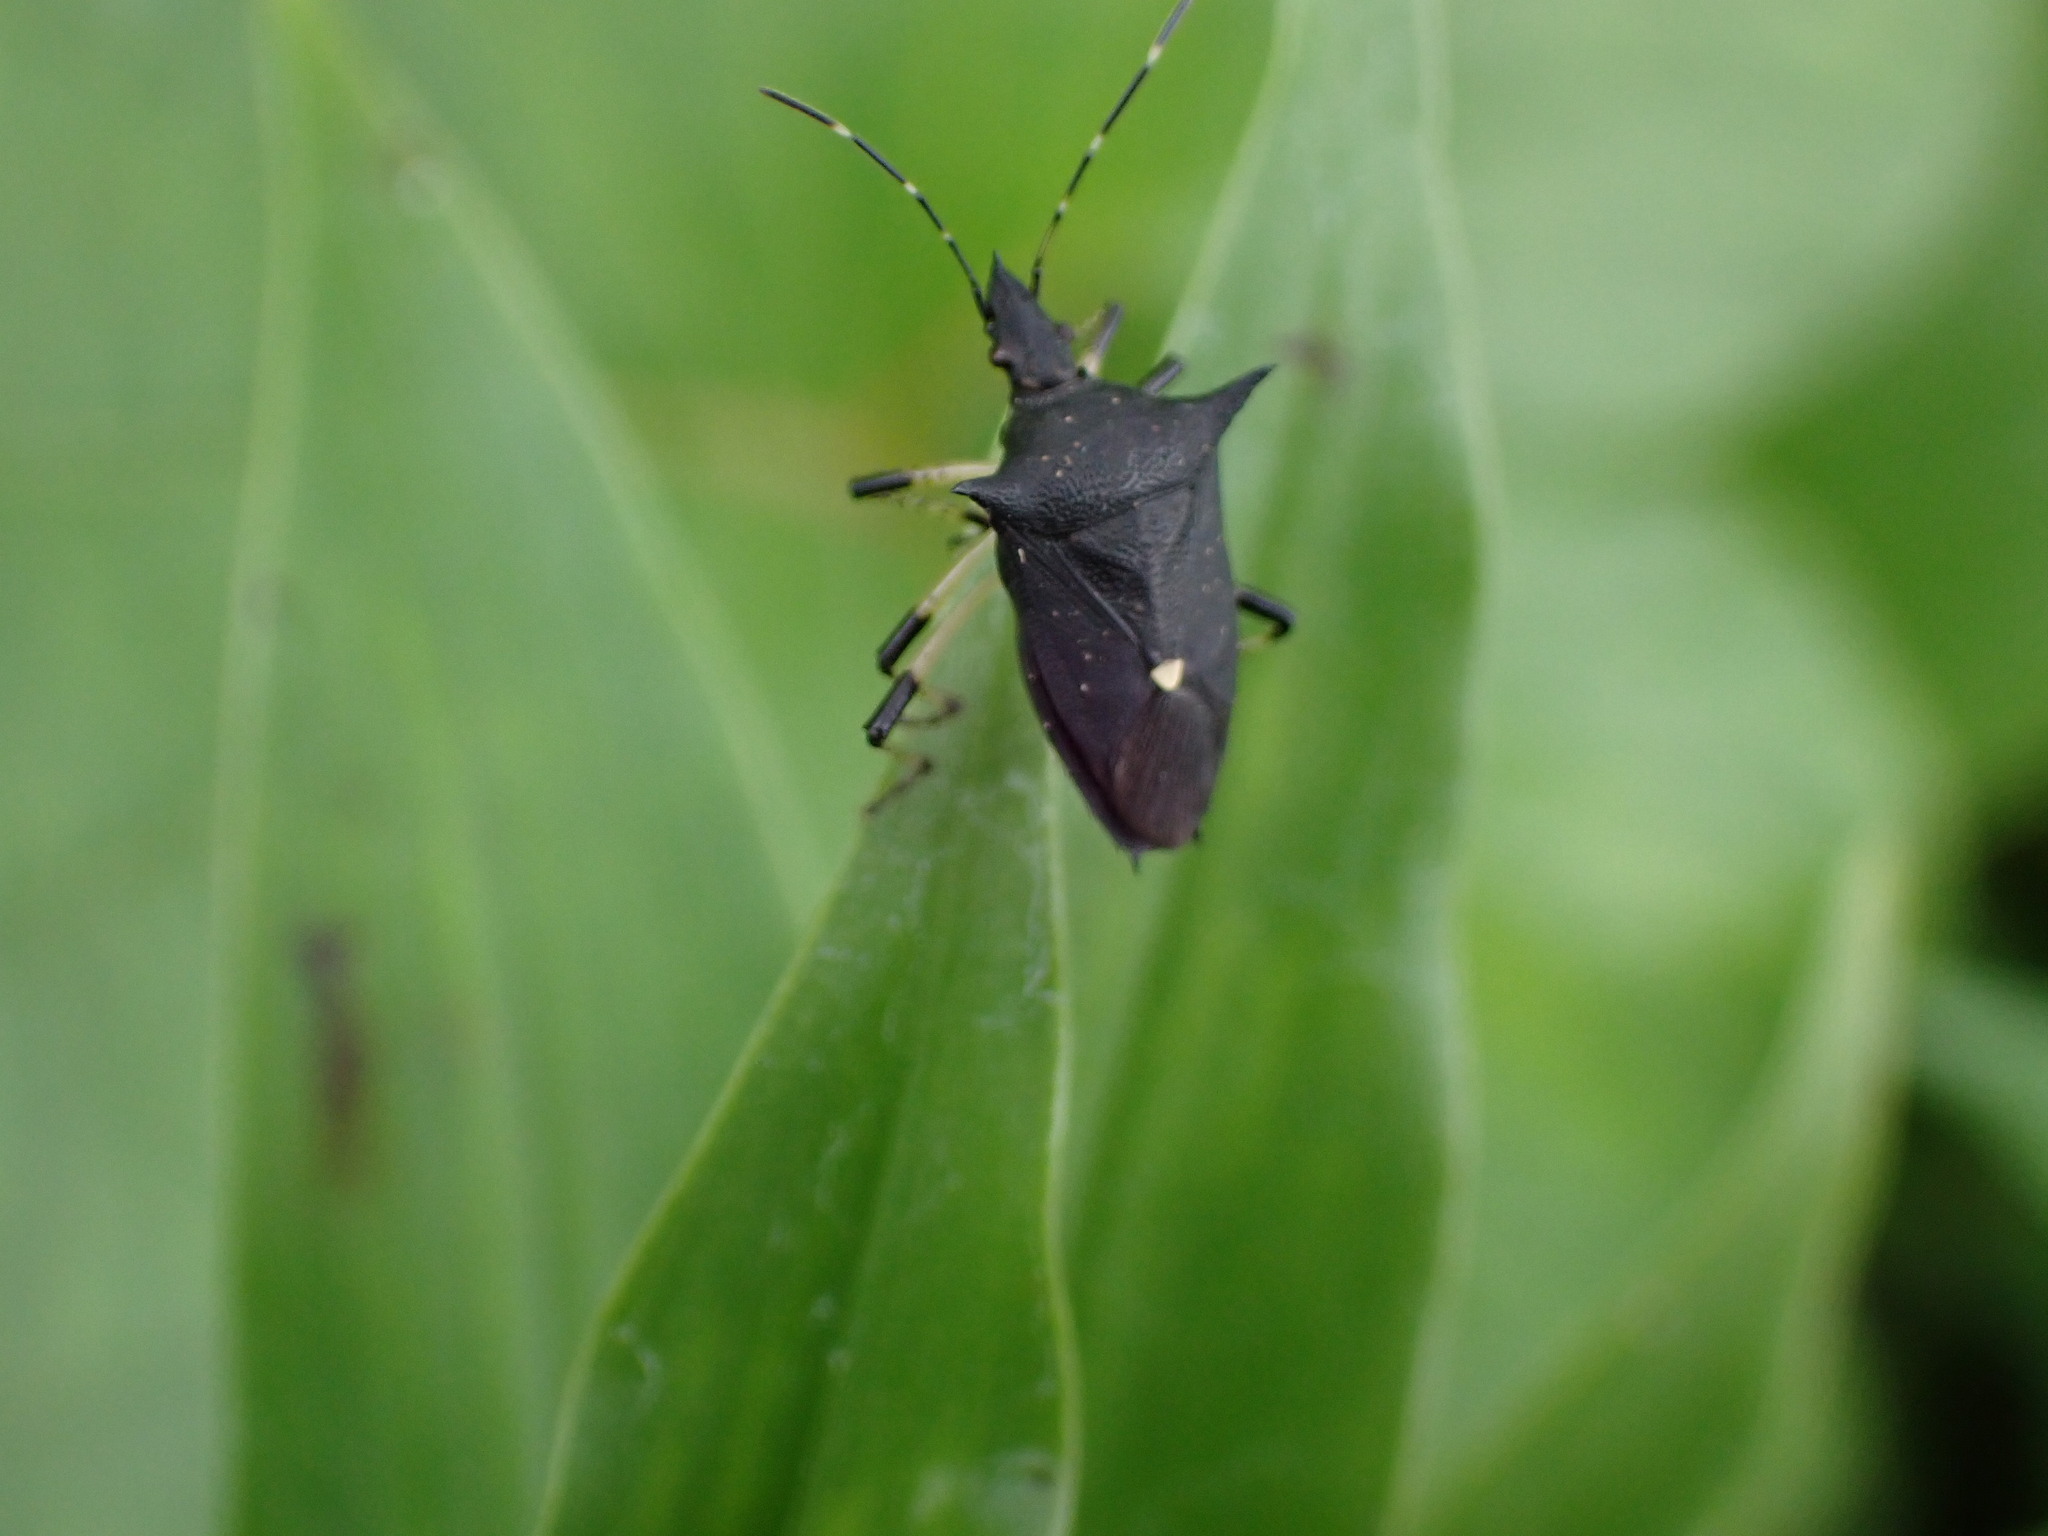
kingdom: Animalia
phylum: Arthropoda
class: Insecta
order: Hemiptera
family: Pentatomidae
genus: Proxys
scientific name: Proxys punctulatus
